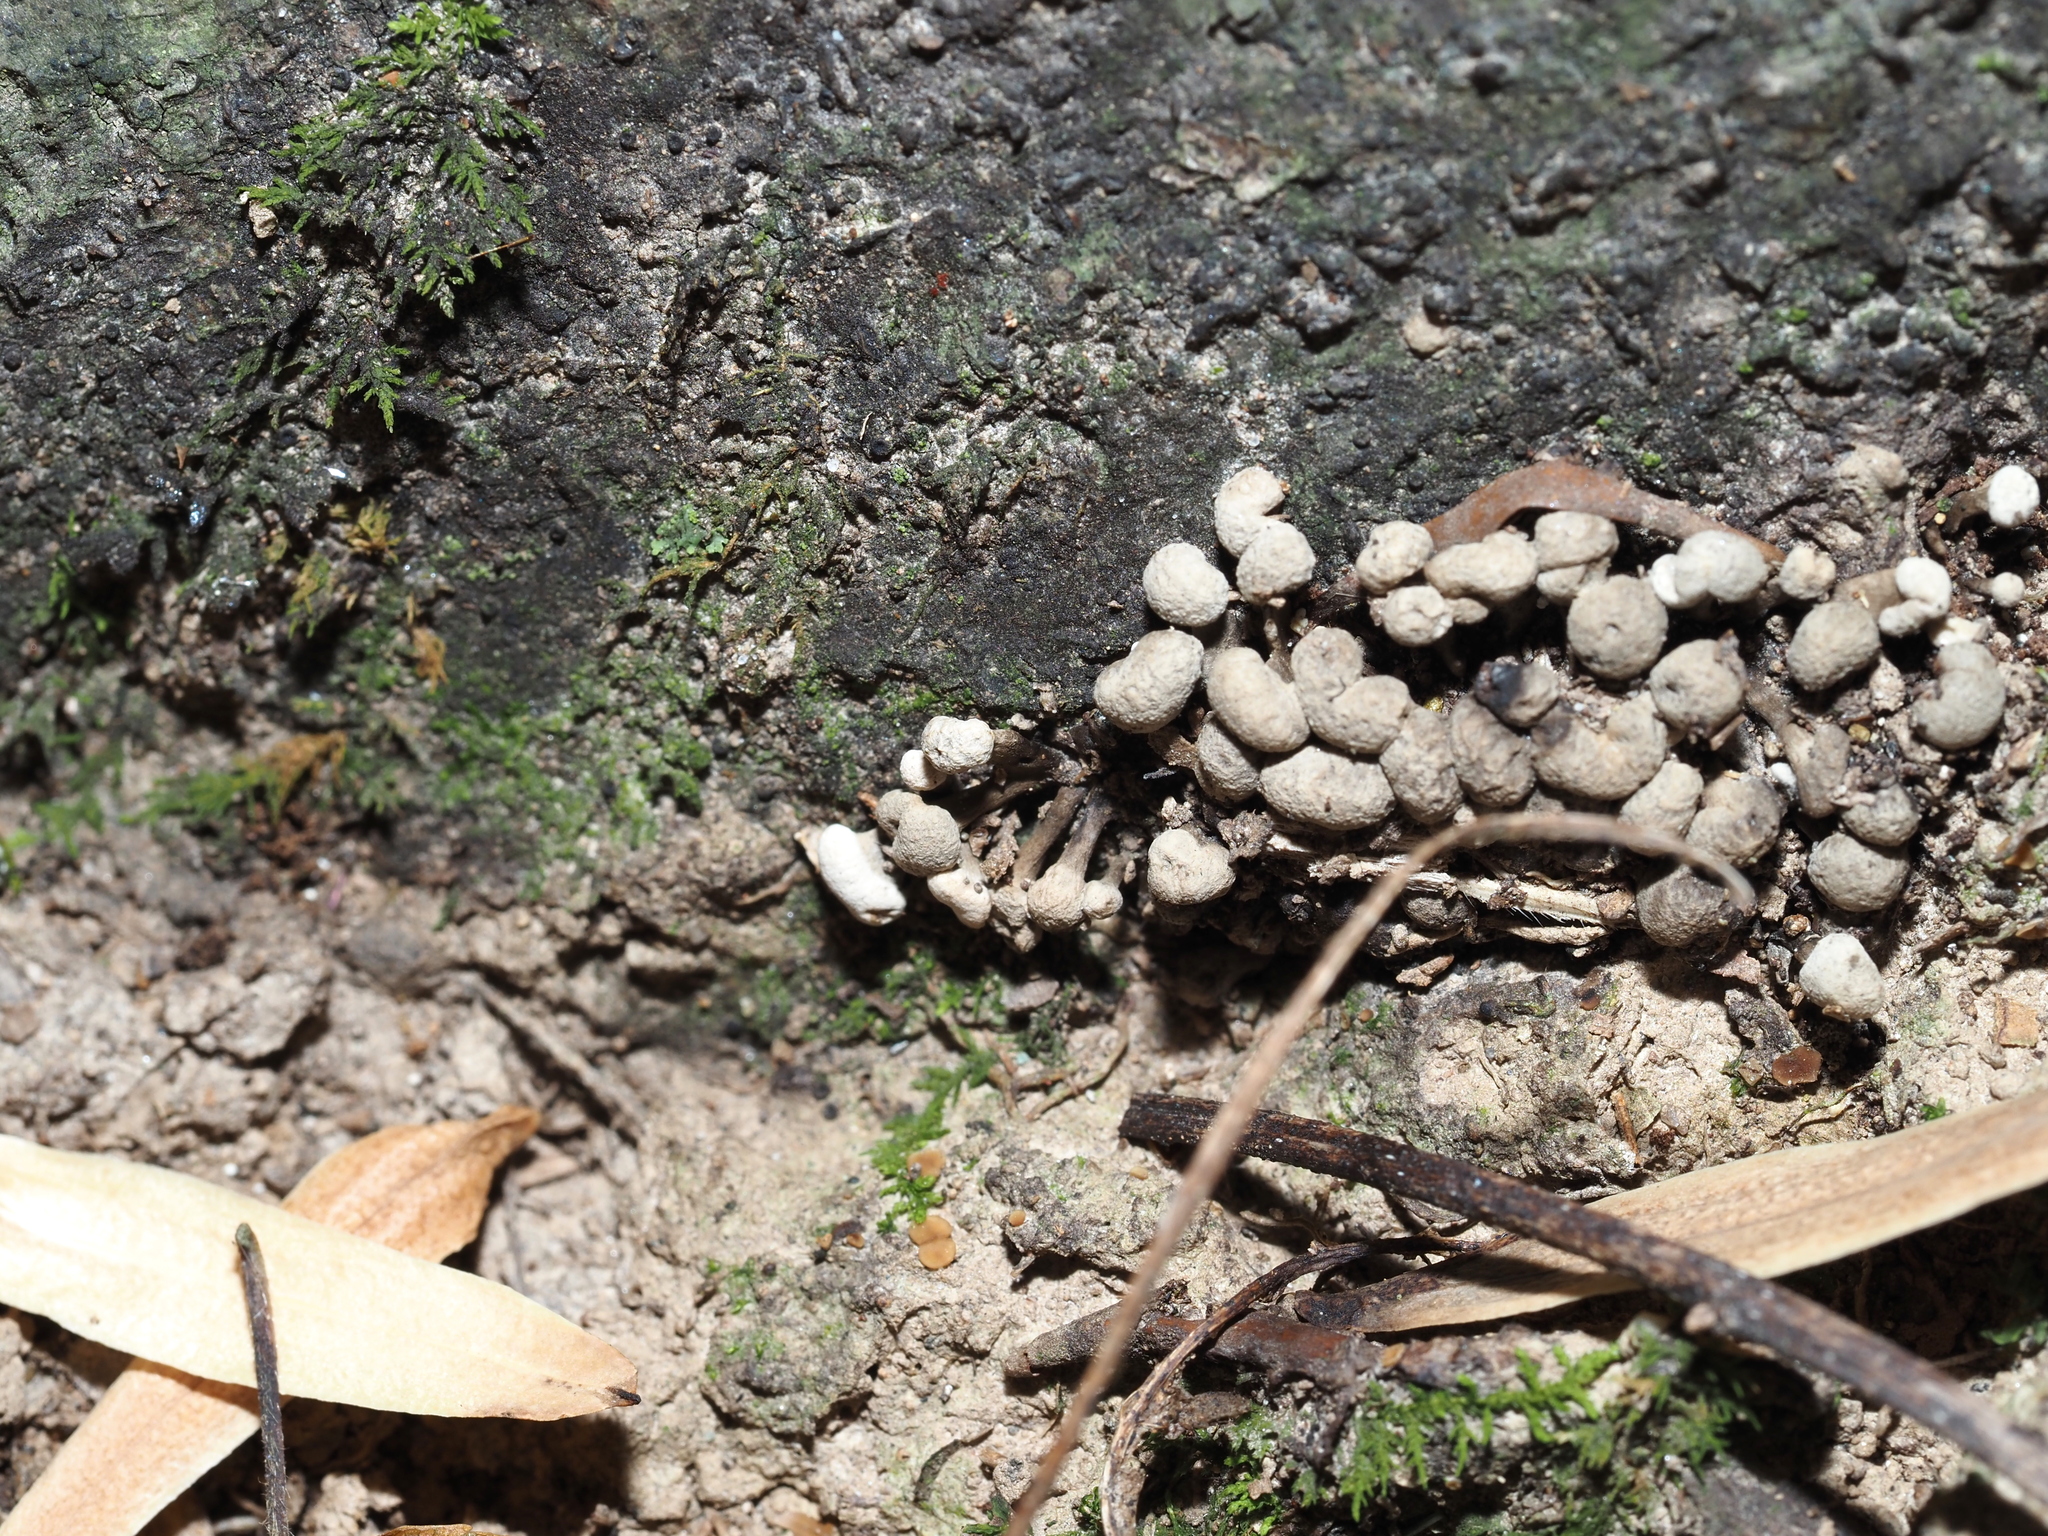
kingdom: Fungi
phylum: Basidiomycota
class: Atractiellomycetes
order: Atractiellales
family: Phleogenaceae
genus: Phleogena
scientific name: Phleogena faginea
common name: Fenugreek stalkball
